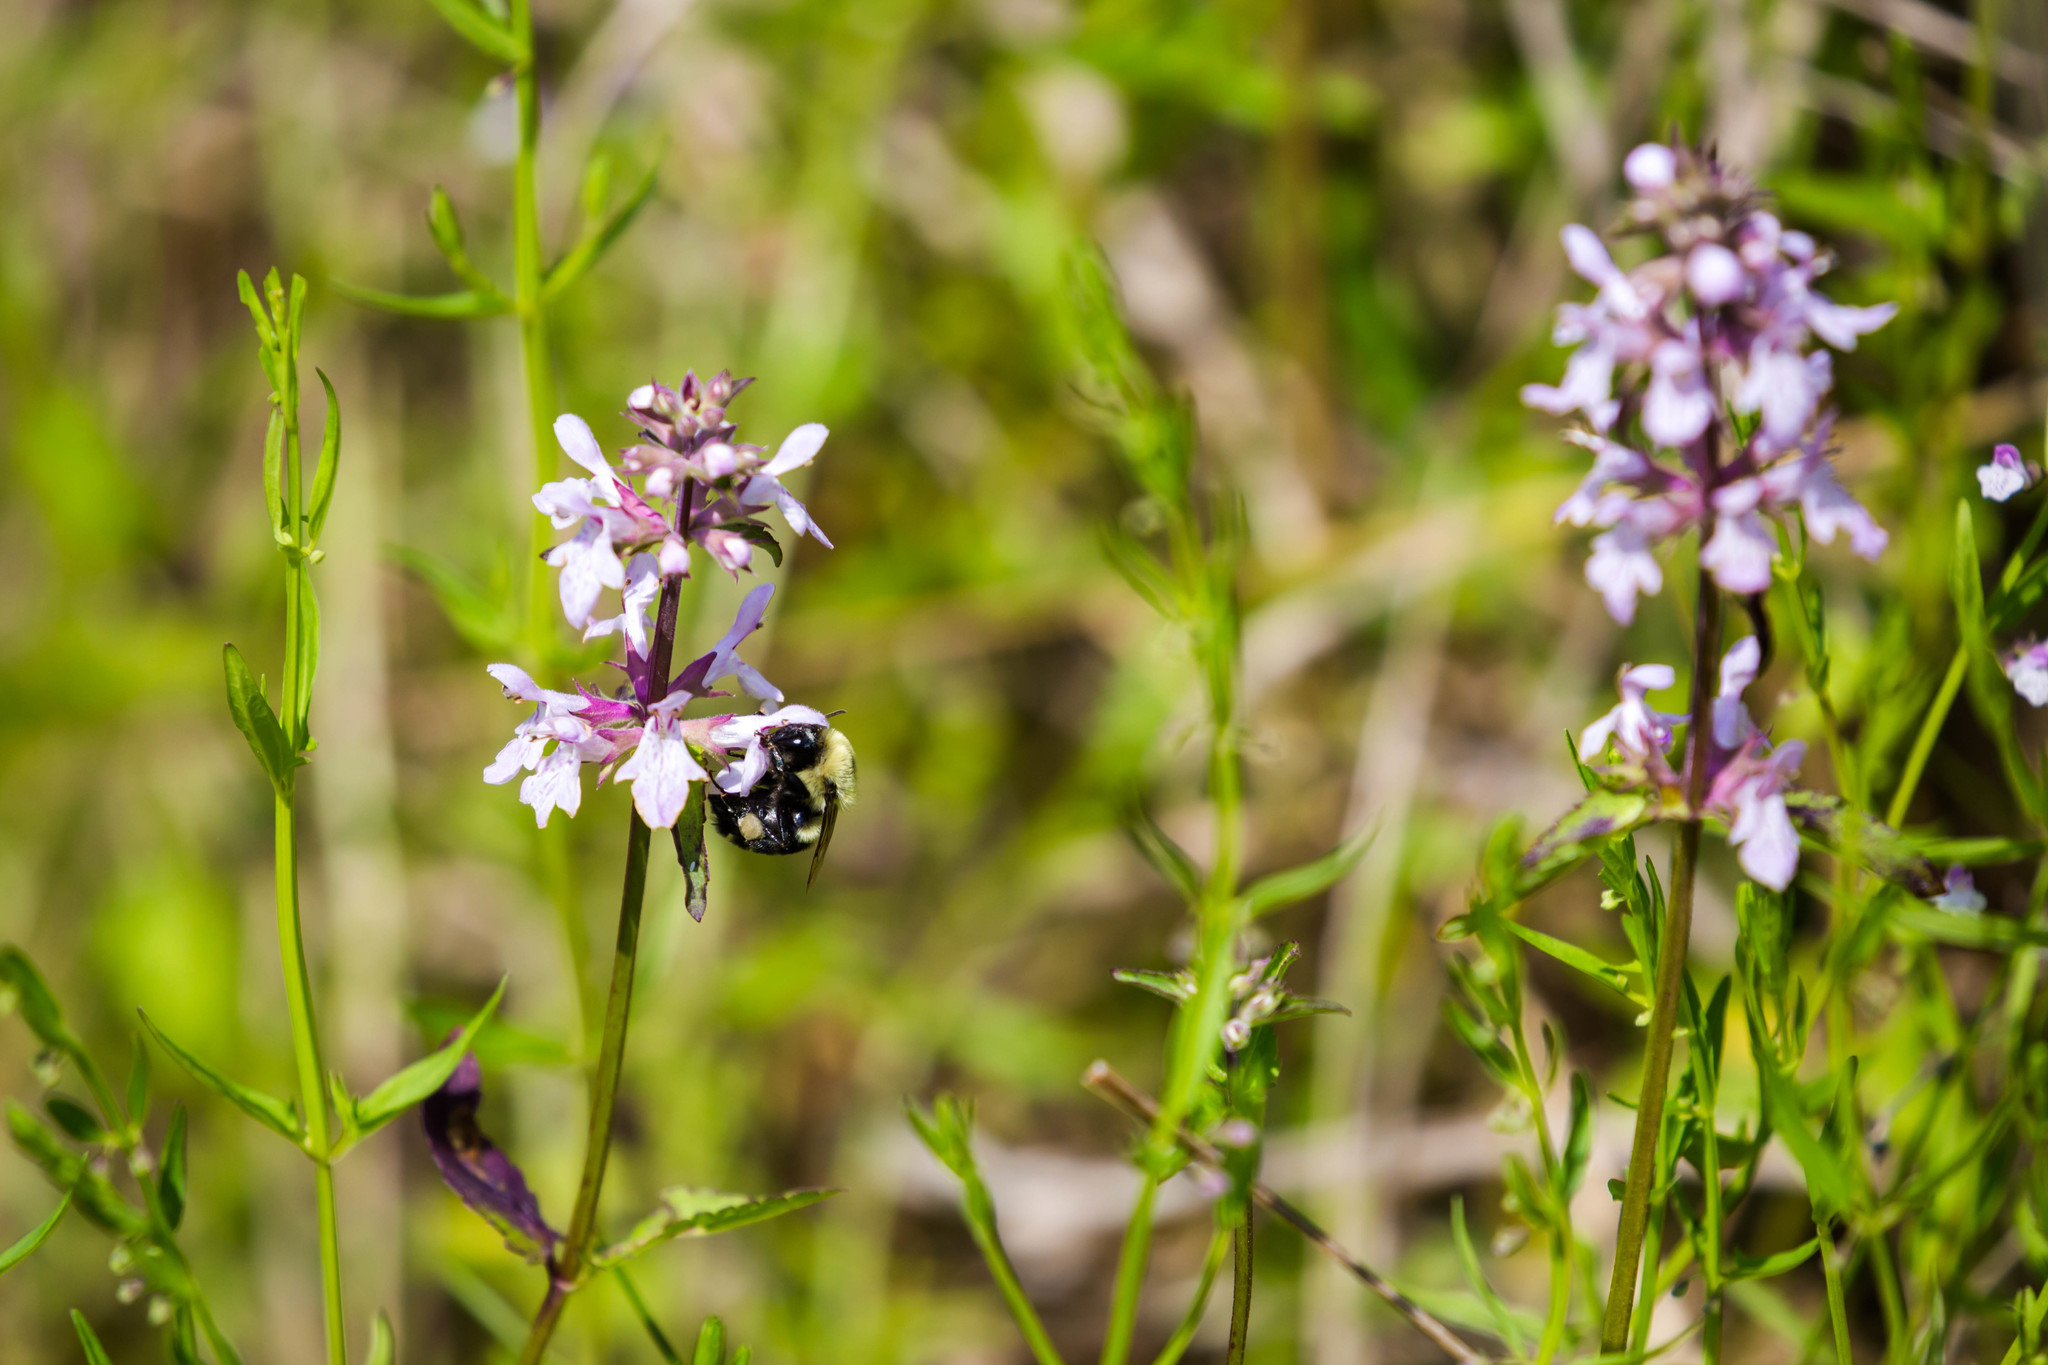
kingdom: Animalia
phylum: Arthropoda
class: Insecta
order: Hymenoptera
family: Apidae
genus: Bombus
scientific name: Bombus impatiens
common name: Common eastern bumble bee
